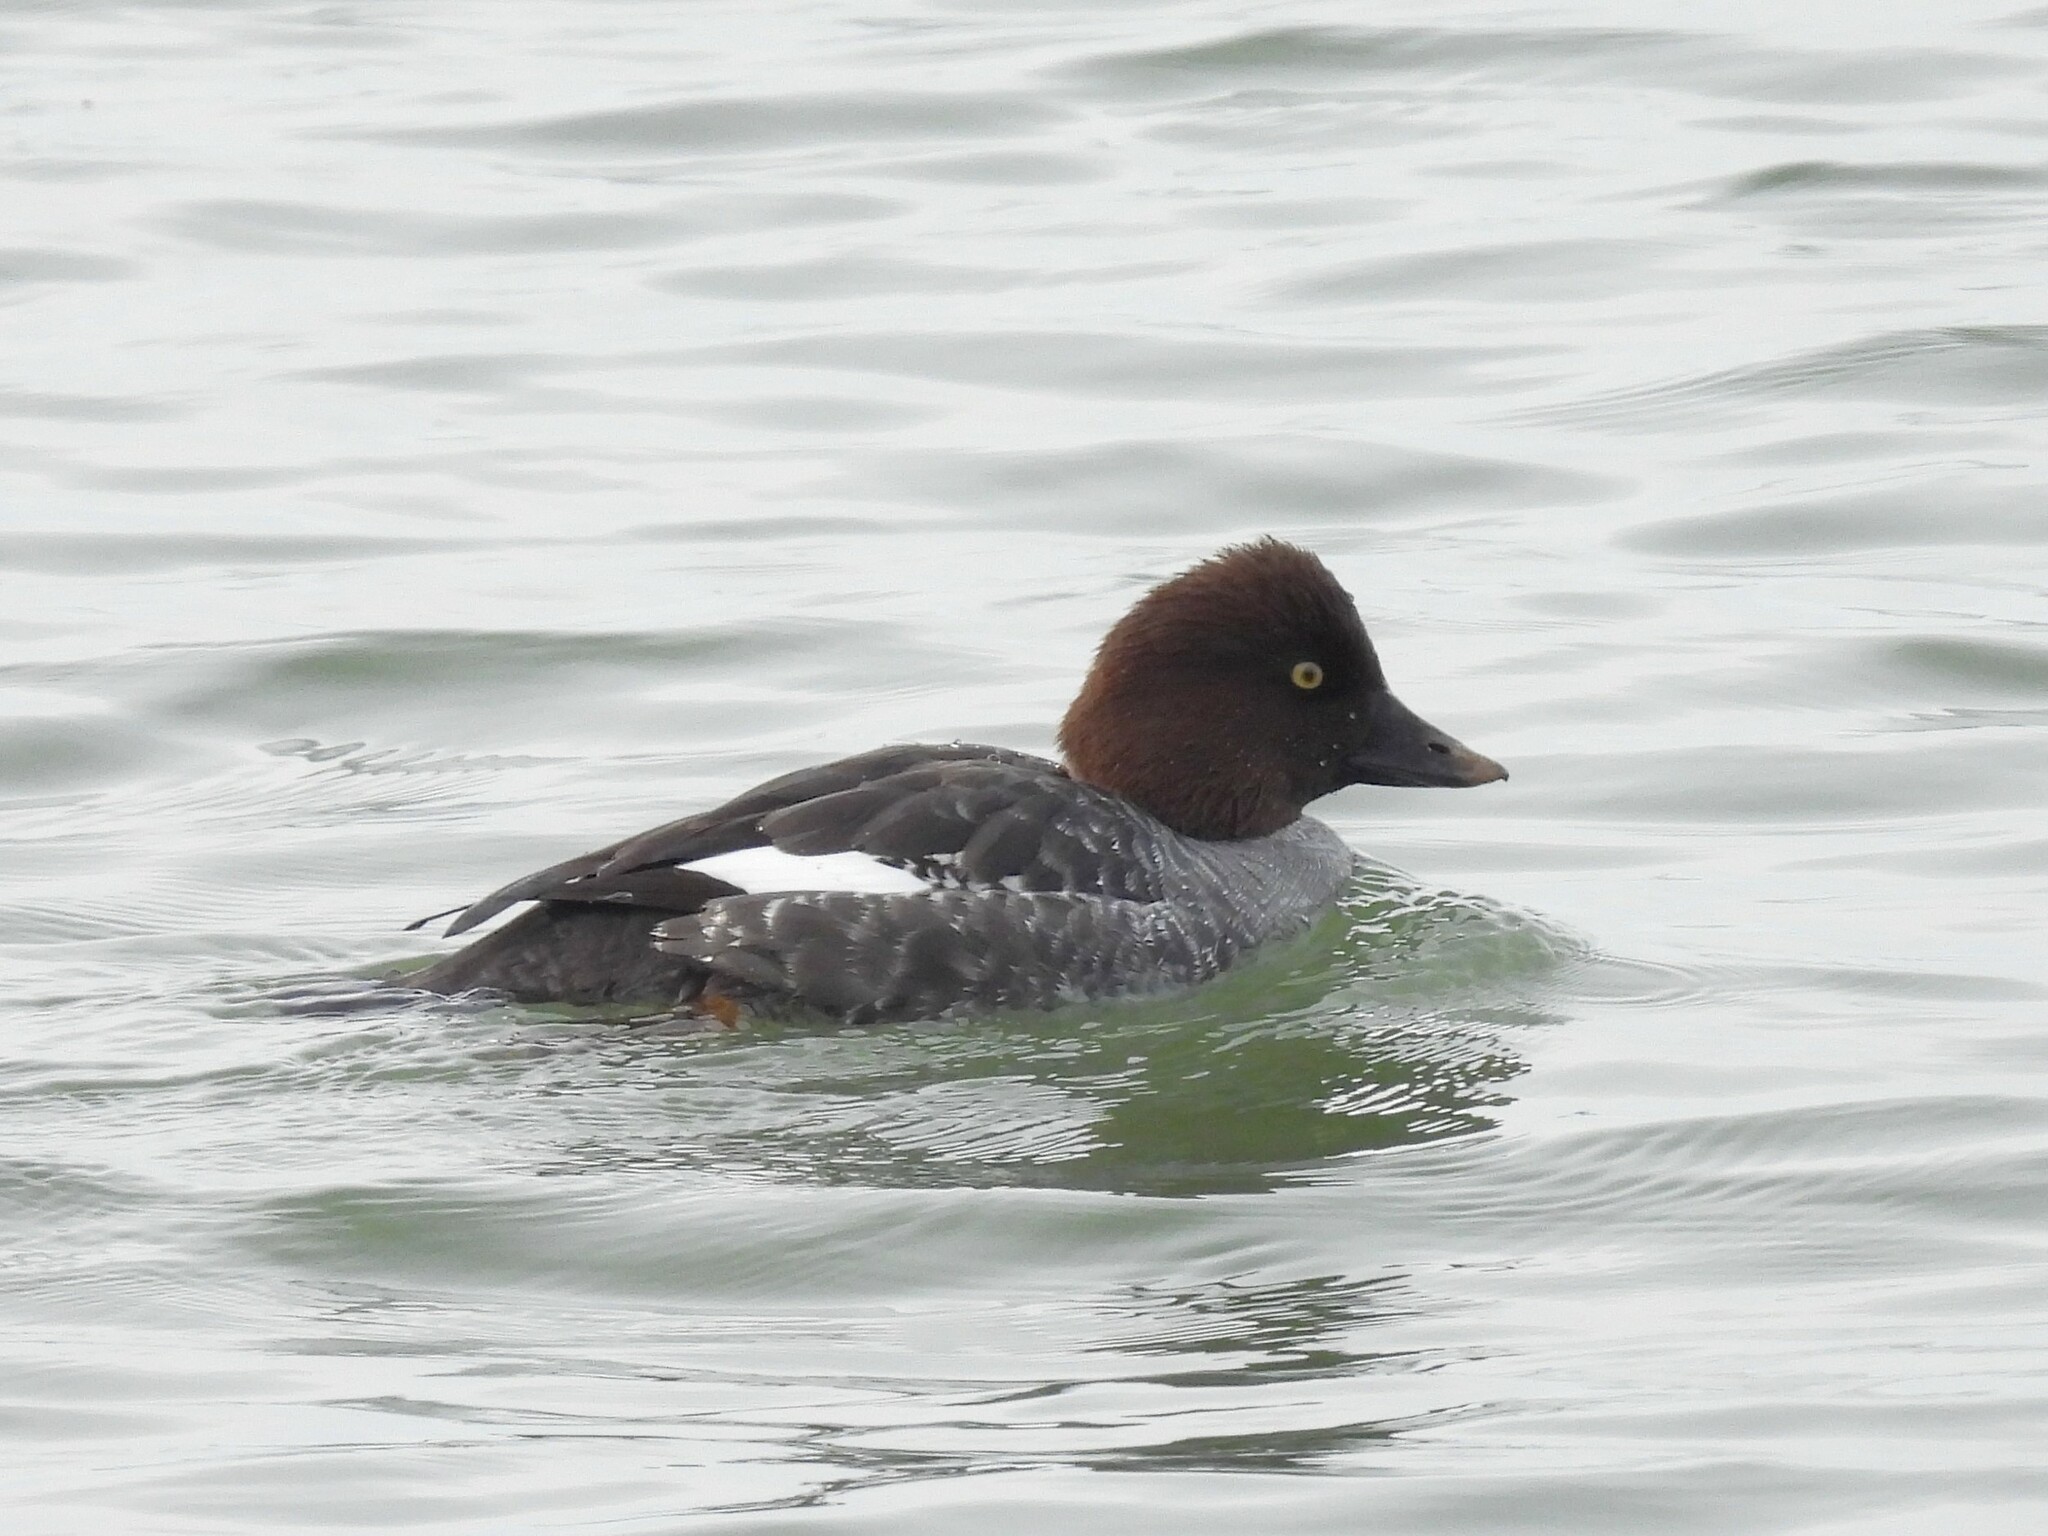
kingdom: Animalia
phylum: Chordata
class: Aves
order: Anseriformes
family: Anatidae
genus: Bucephala
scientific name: Bucephala clangula
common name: Common goldeneye
